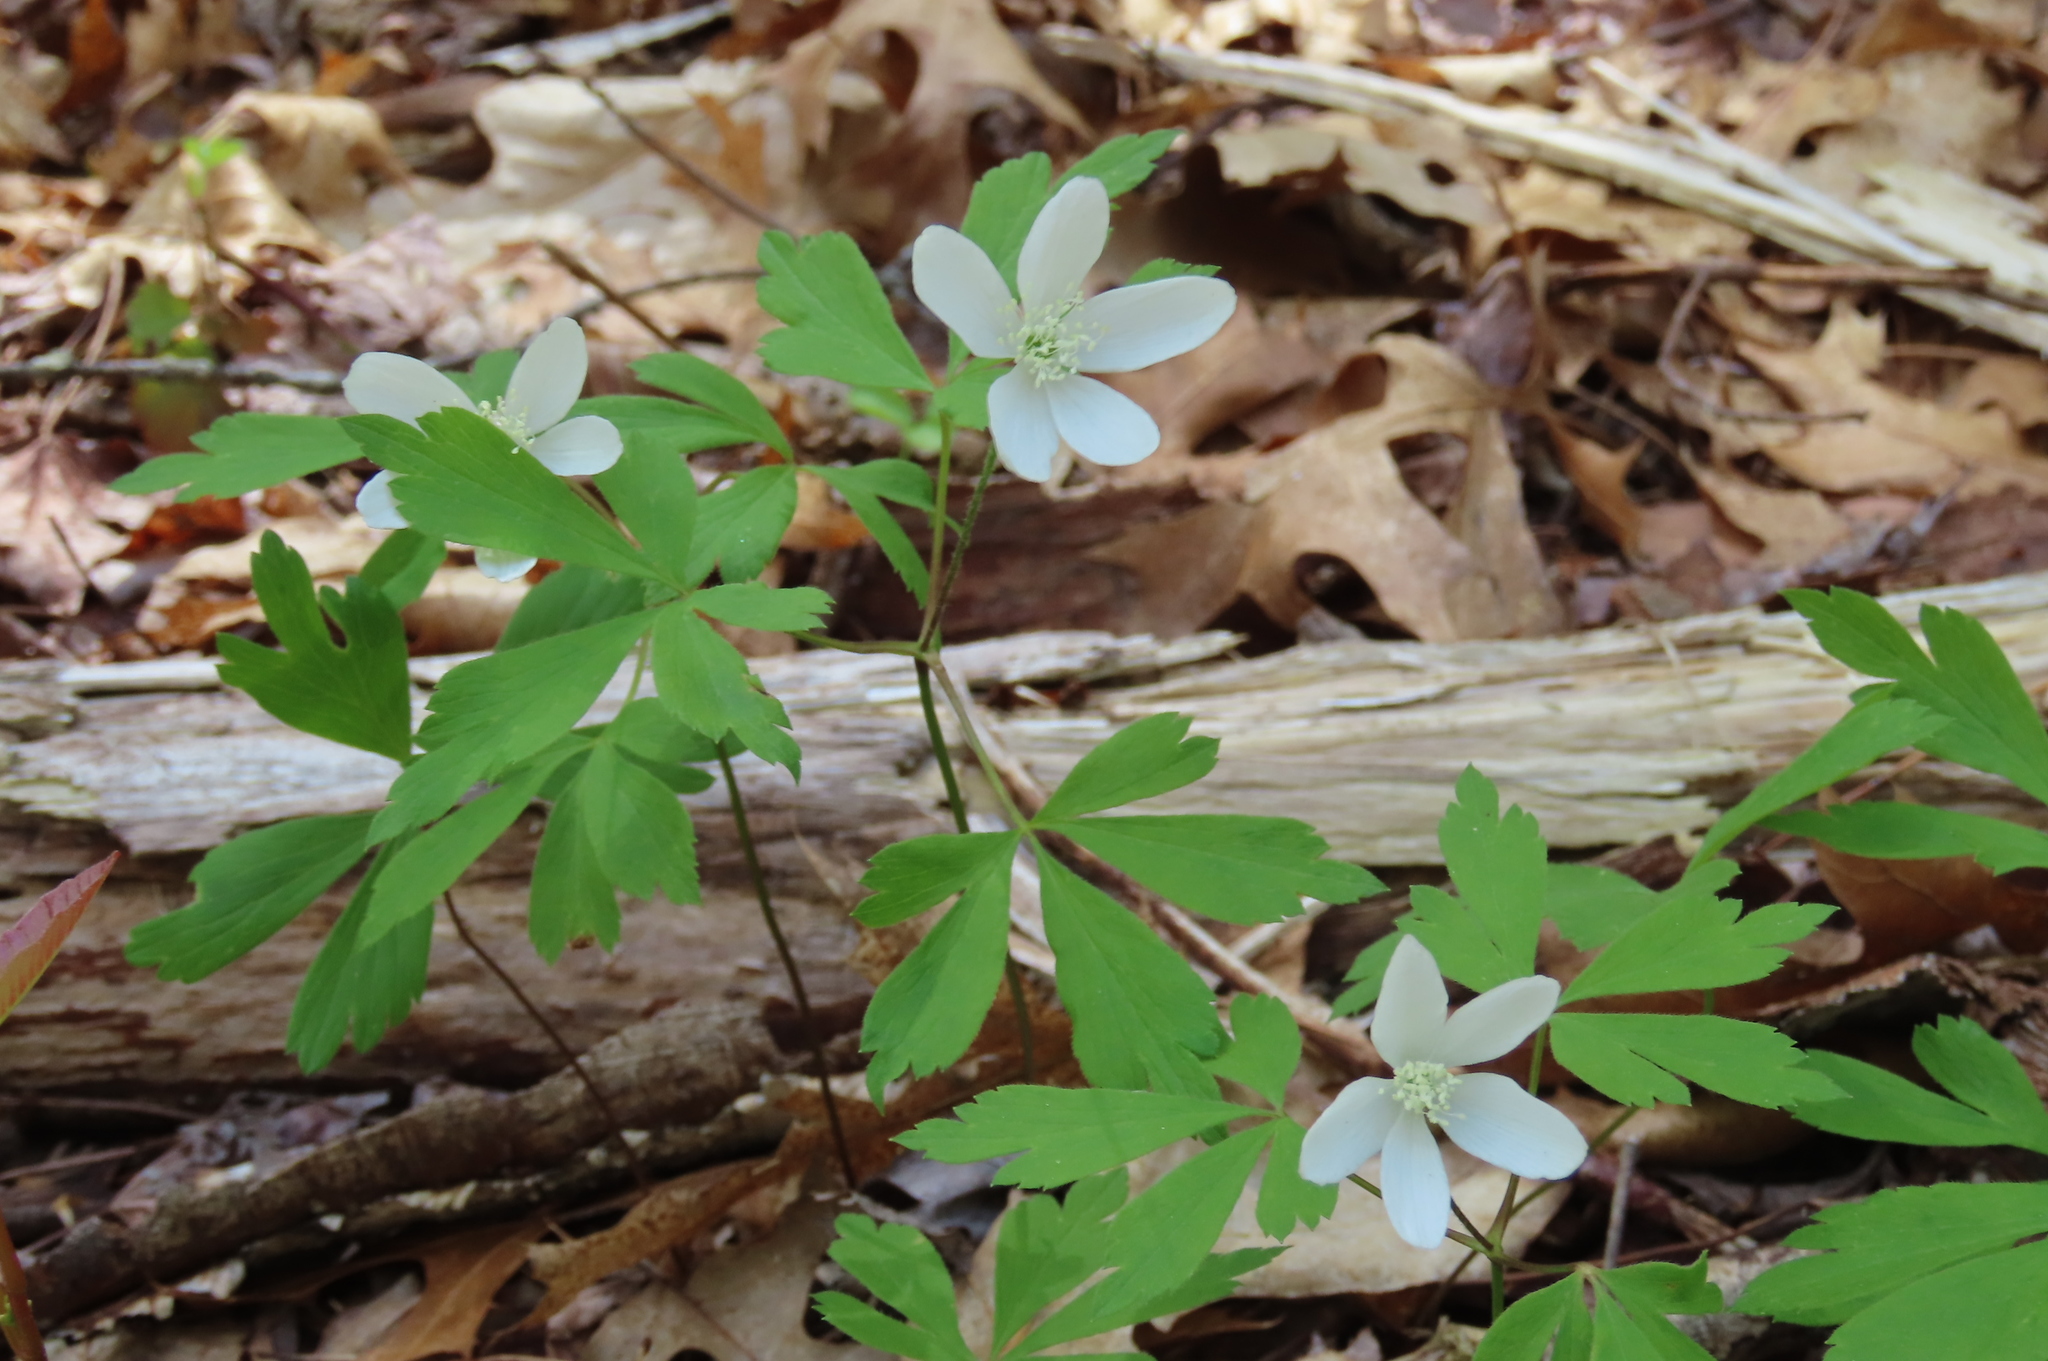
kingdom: Plantae
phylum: Tracheophyta
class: Magnoliopsida
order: Ranunculales
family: Ranunculaceae
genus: Anemone
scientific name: Anemone quinquefolia
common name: Wood anemone
